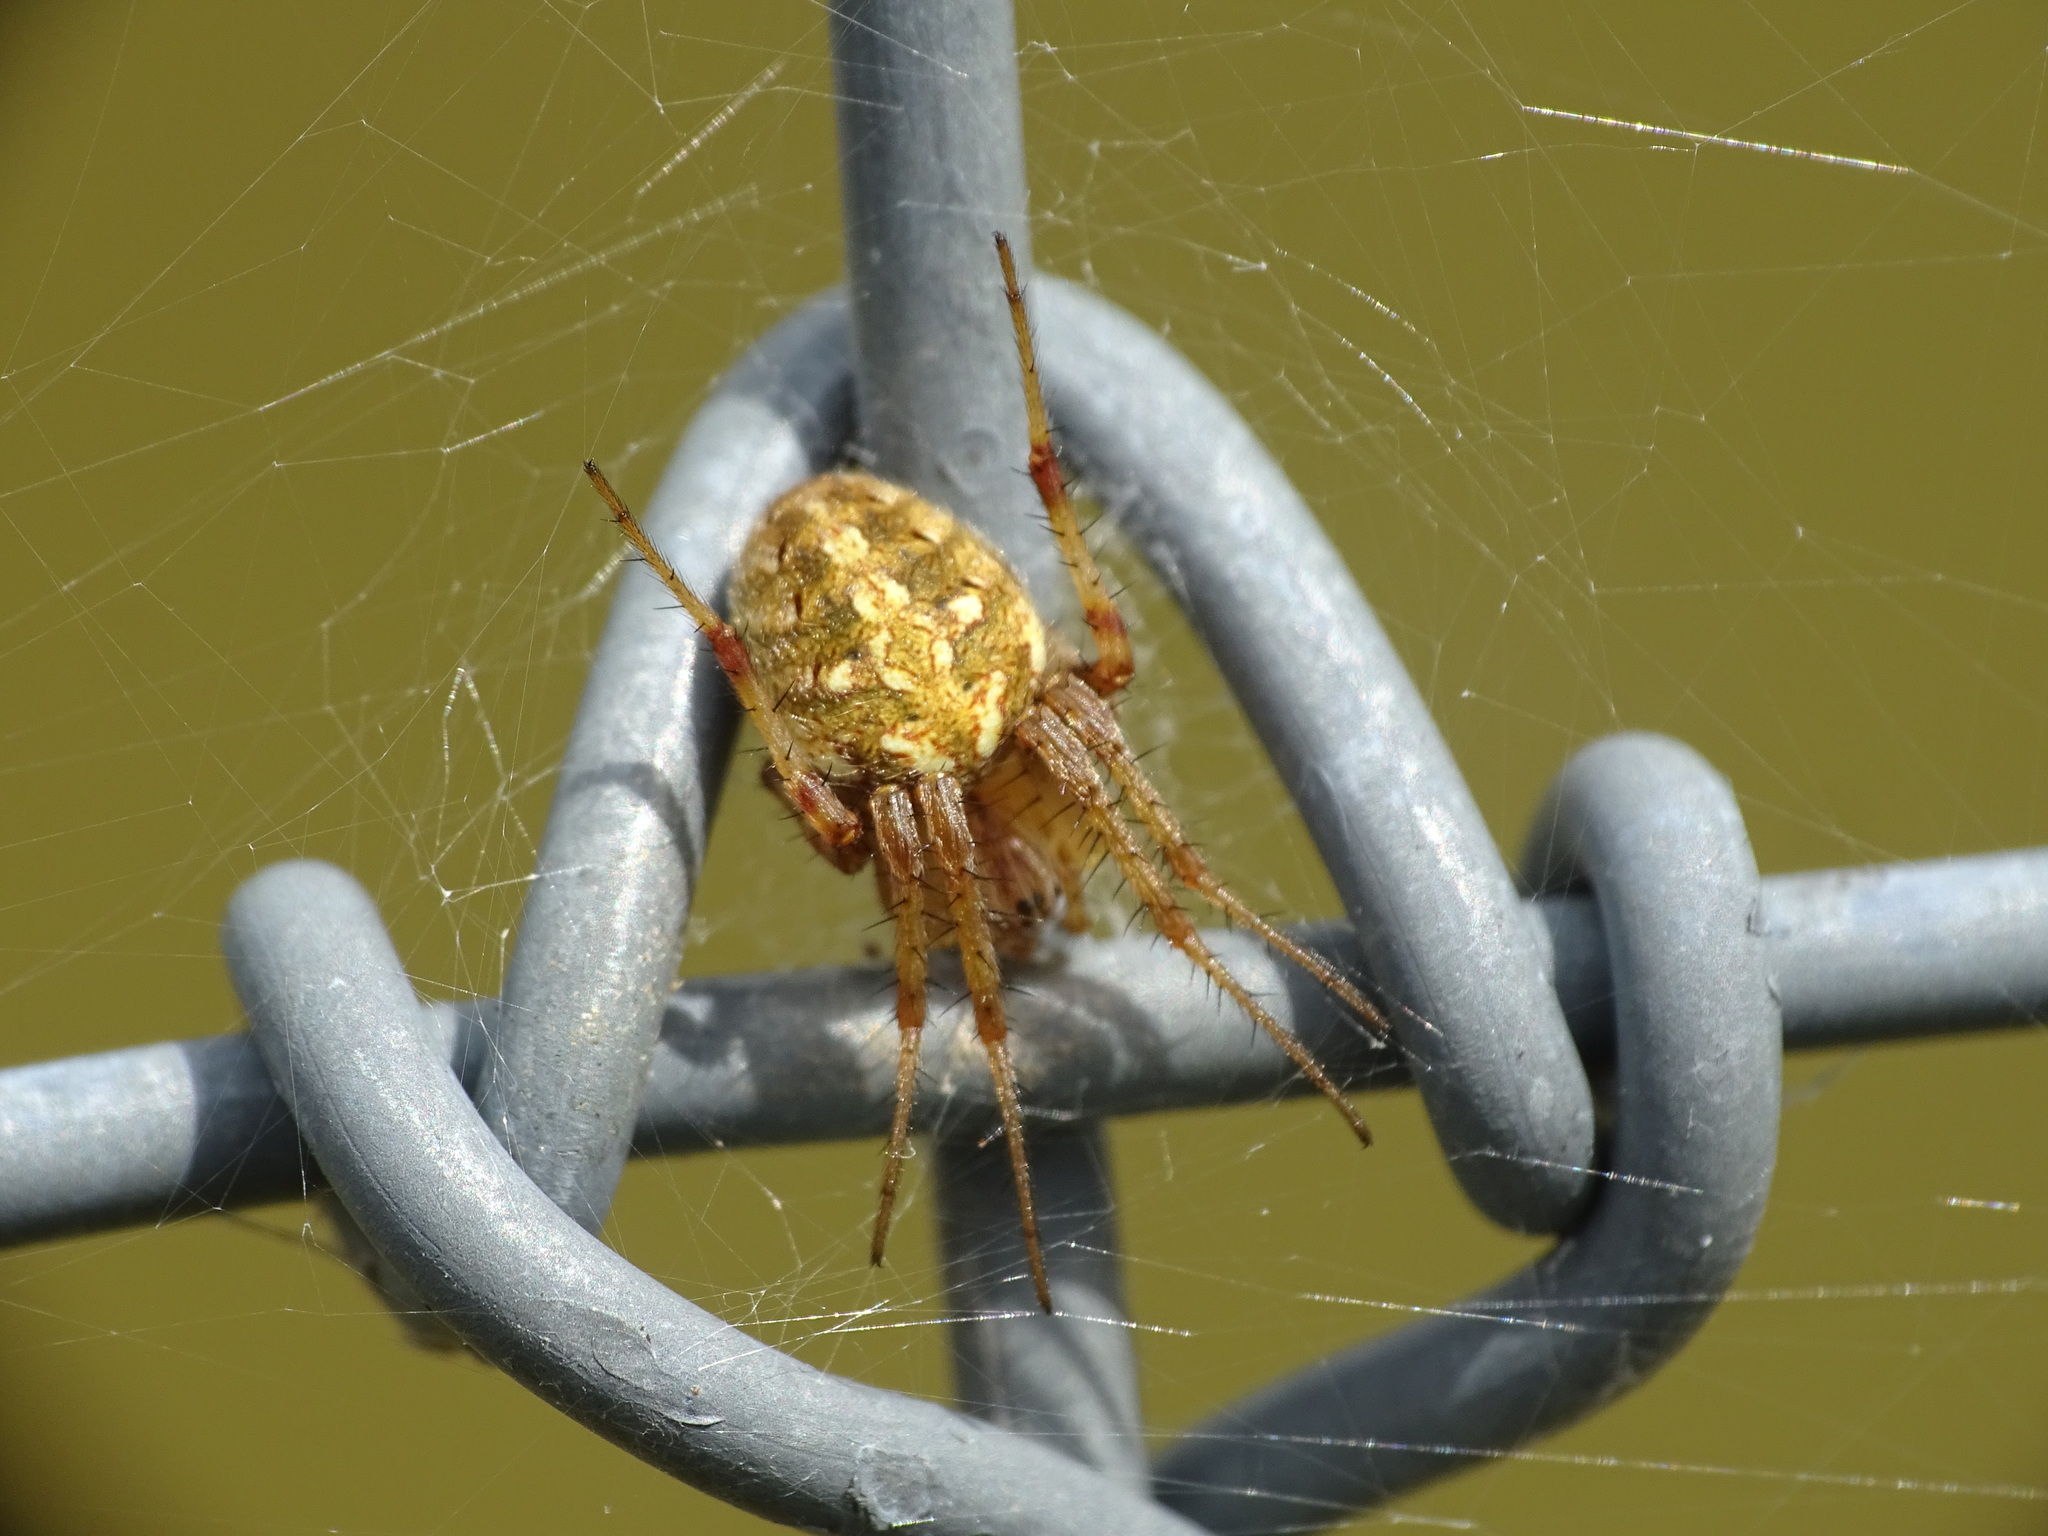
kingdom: Animalia
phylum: Arthropoda
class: Arachnida
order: Araneae
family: Araneidae
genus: Neoscona
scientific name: Neoscona arabesca
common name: Orb weavers
